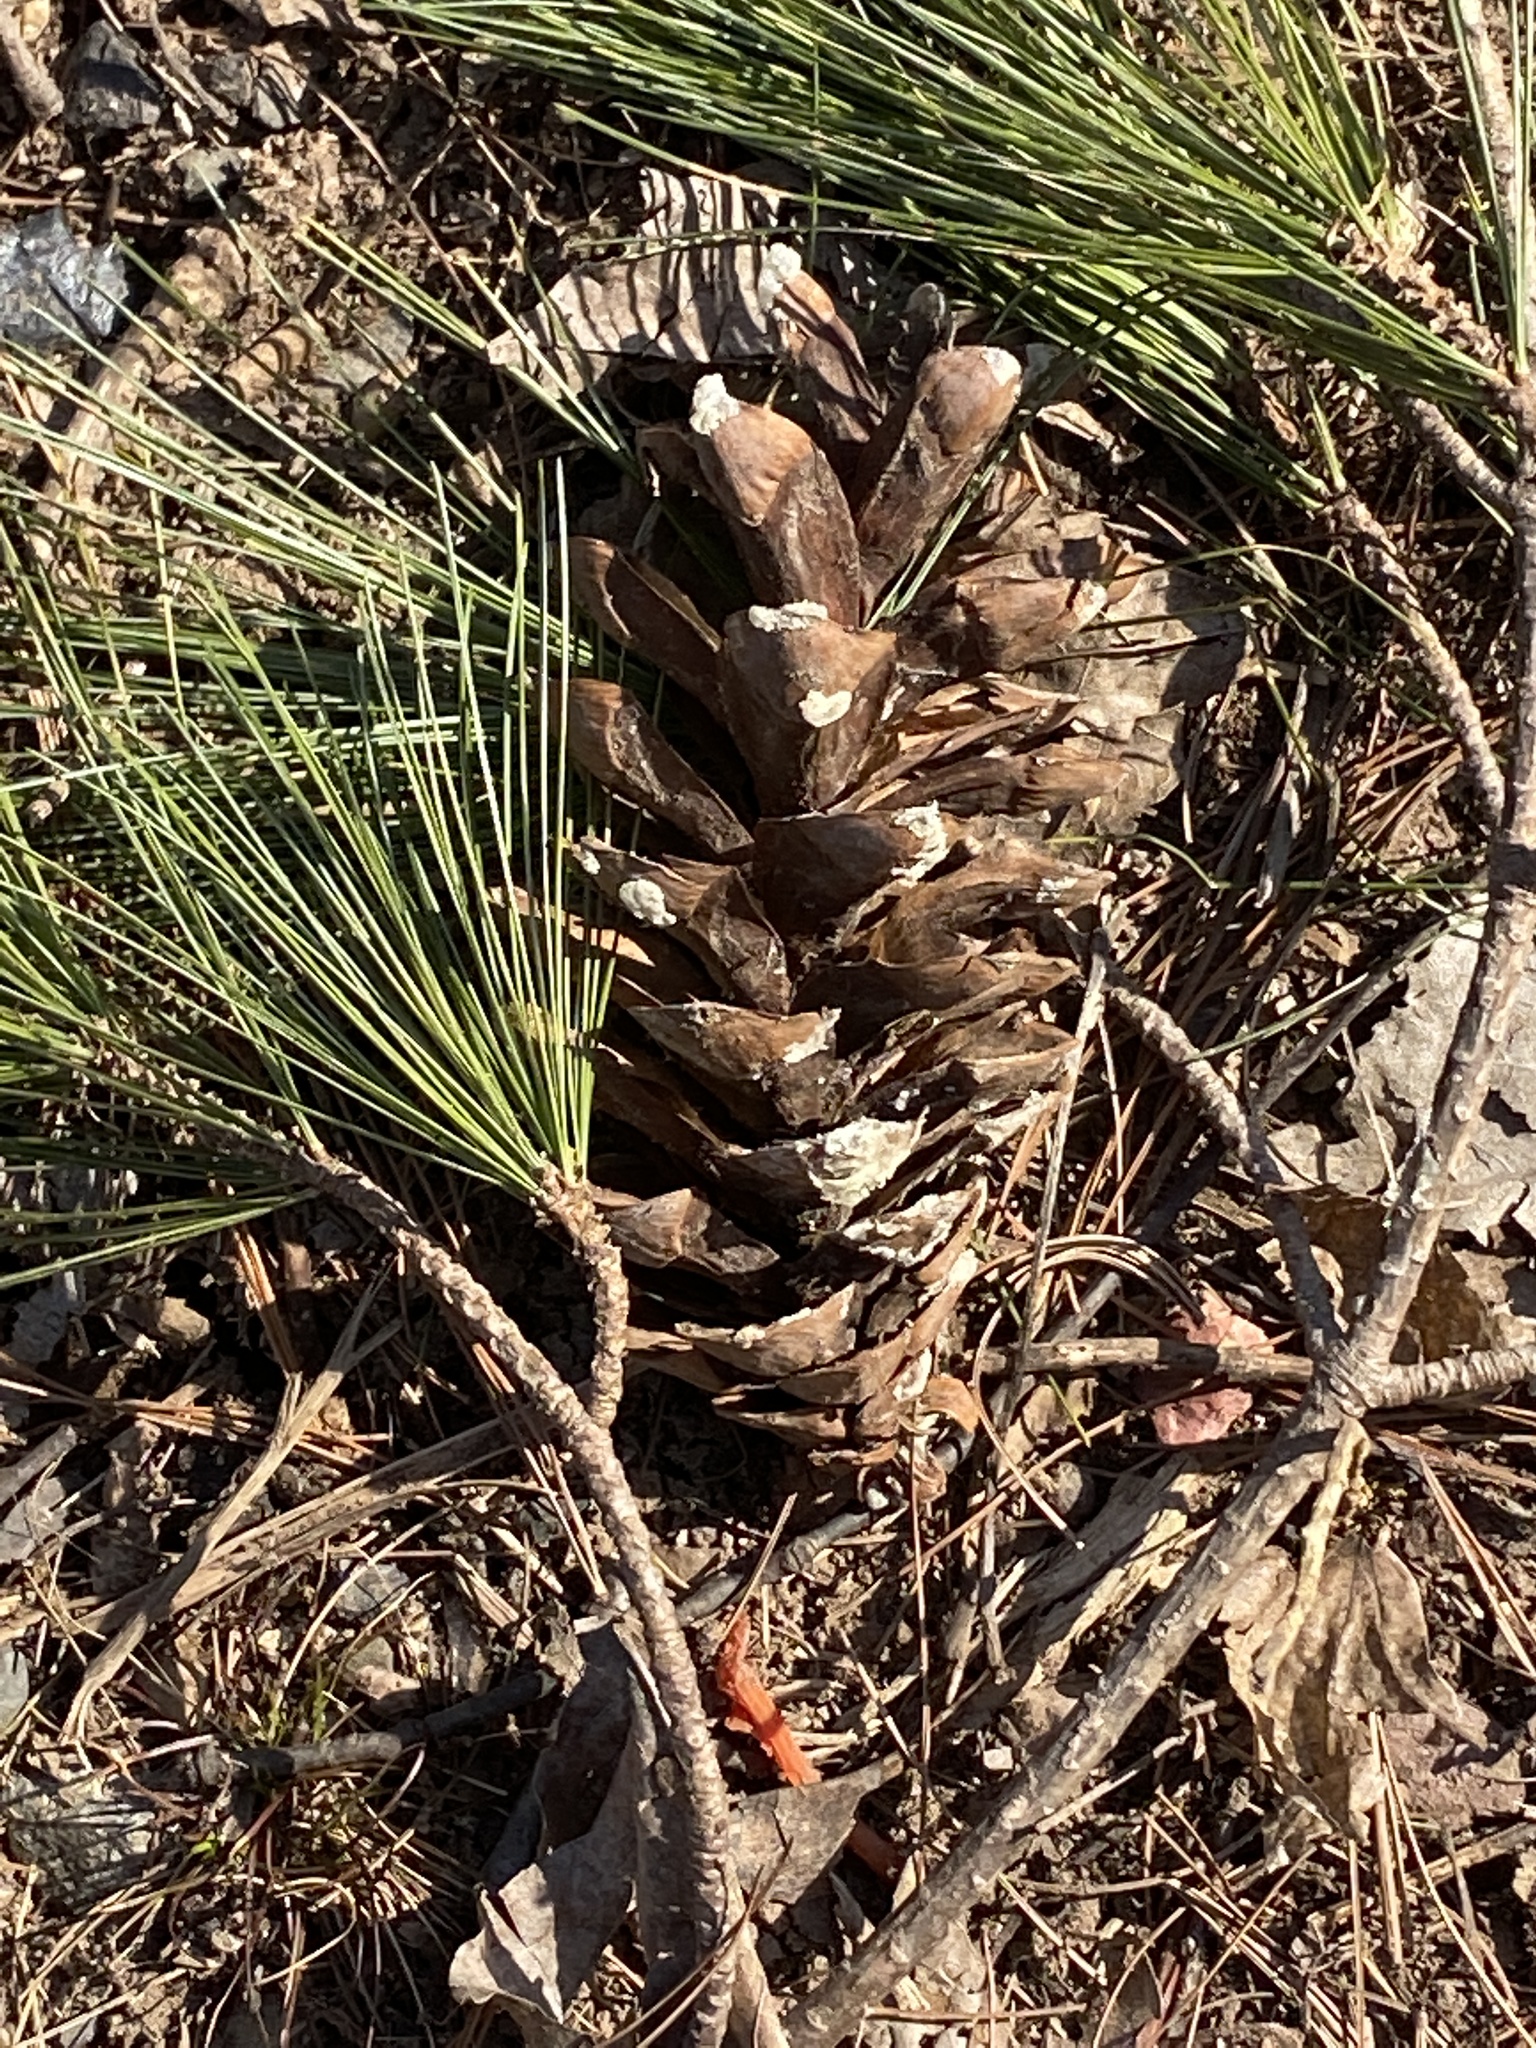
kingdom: Plantae
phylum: Tracheophyta
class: Pinopsida
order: Pinales
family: Pinaceae
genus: Pinus
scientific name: Pinus strobus
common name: Weymouth pine
